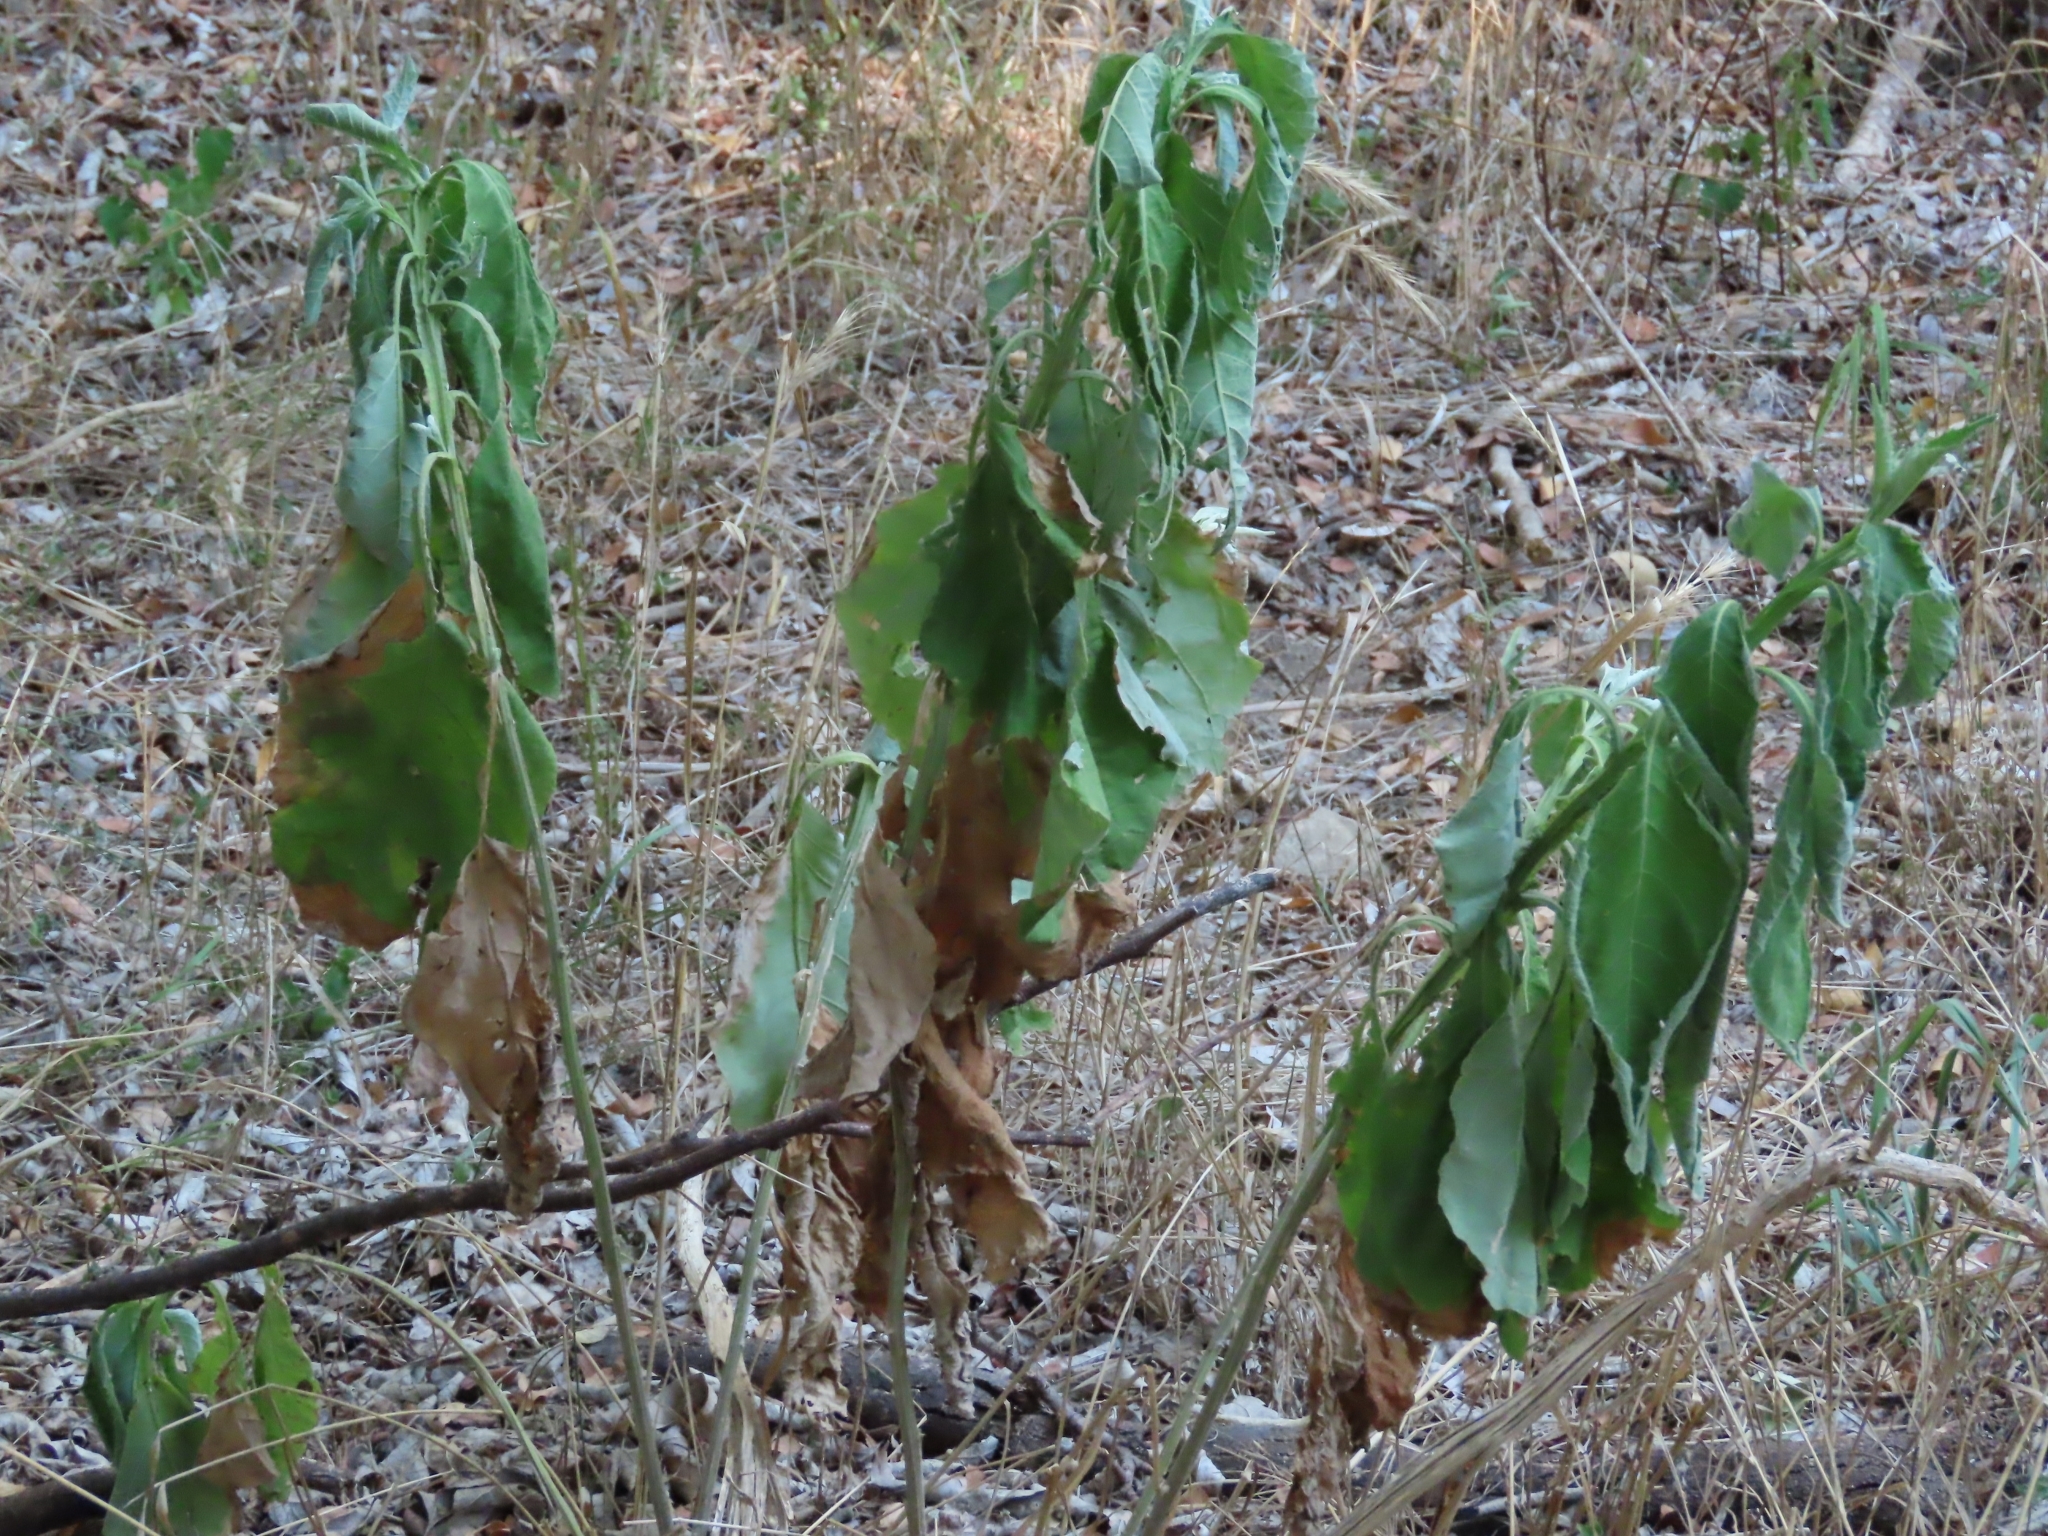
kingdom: Plantae
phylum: Tracheophyta
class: Magnoliopsida
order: Asterales
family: Asteraceae
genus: Verbesina
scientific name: Verbesina virginica
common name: Frostweed
